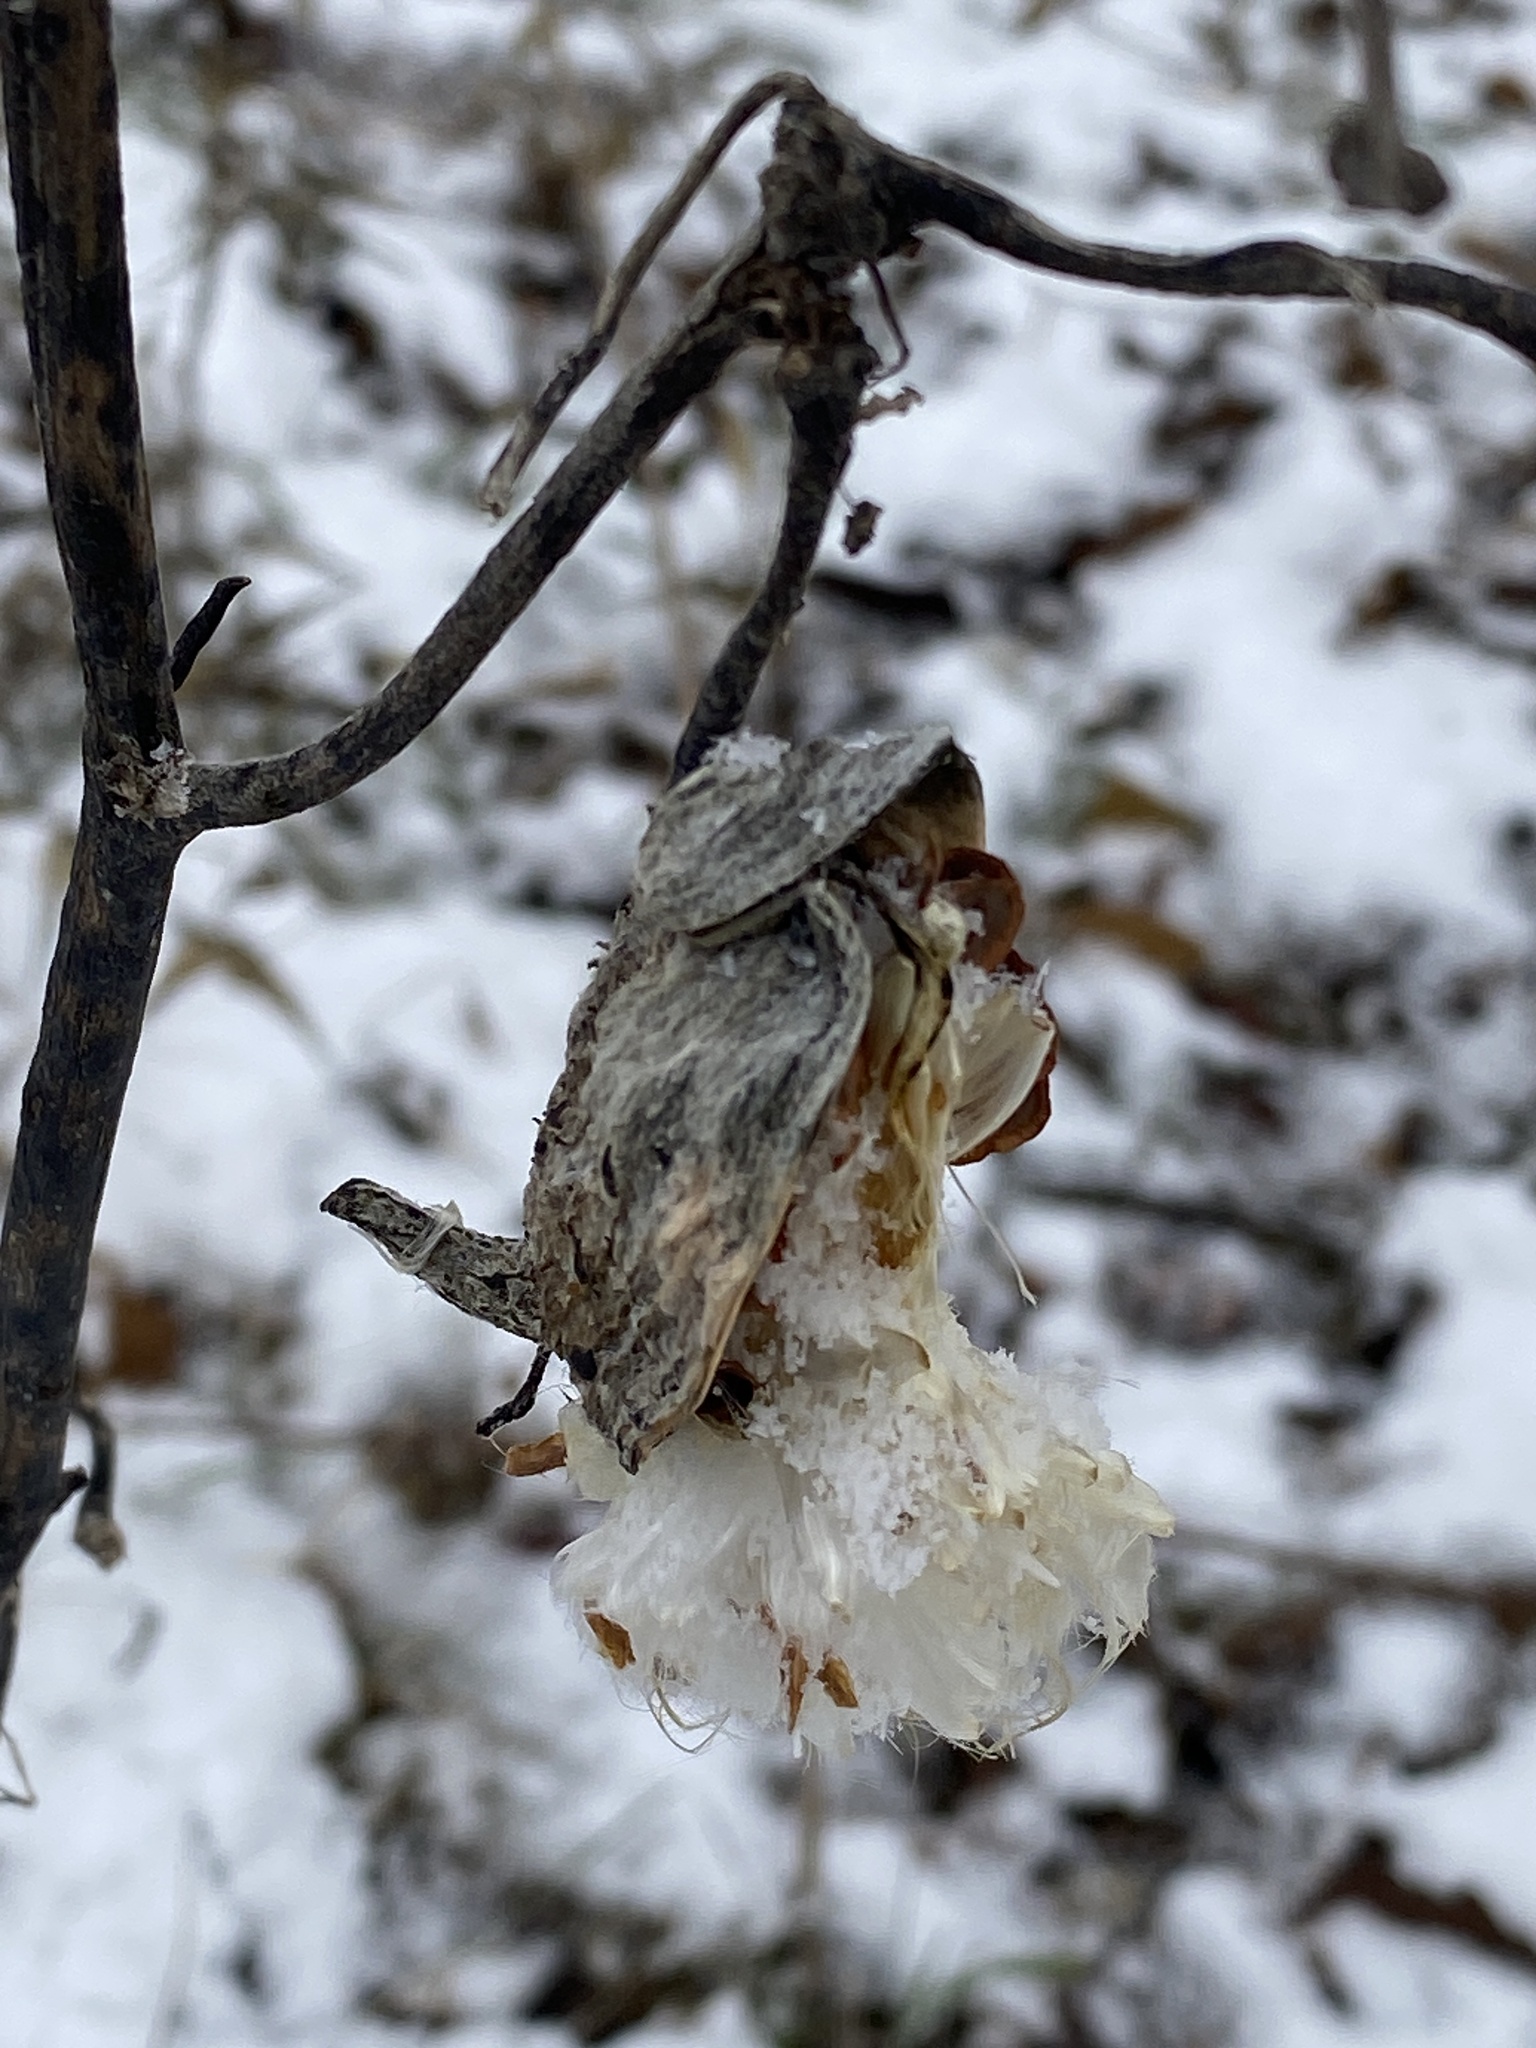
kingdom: Plantae
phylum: Tracheophyta
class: Magnoliopsida
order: Gentianales
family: Apocynaceae
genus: Asclepias
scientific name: Asclepias syriaca
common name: Common milkweed
